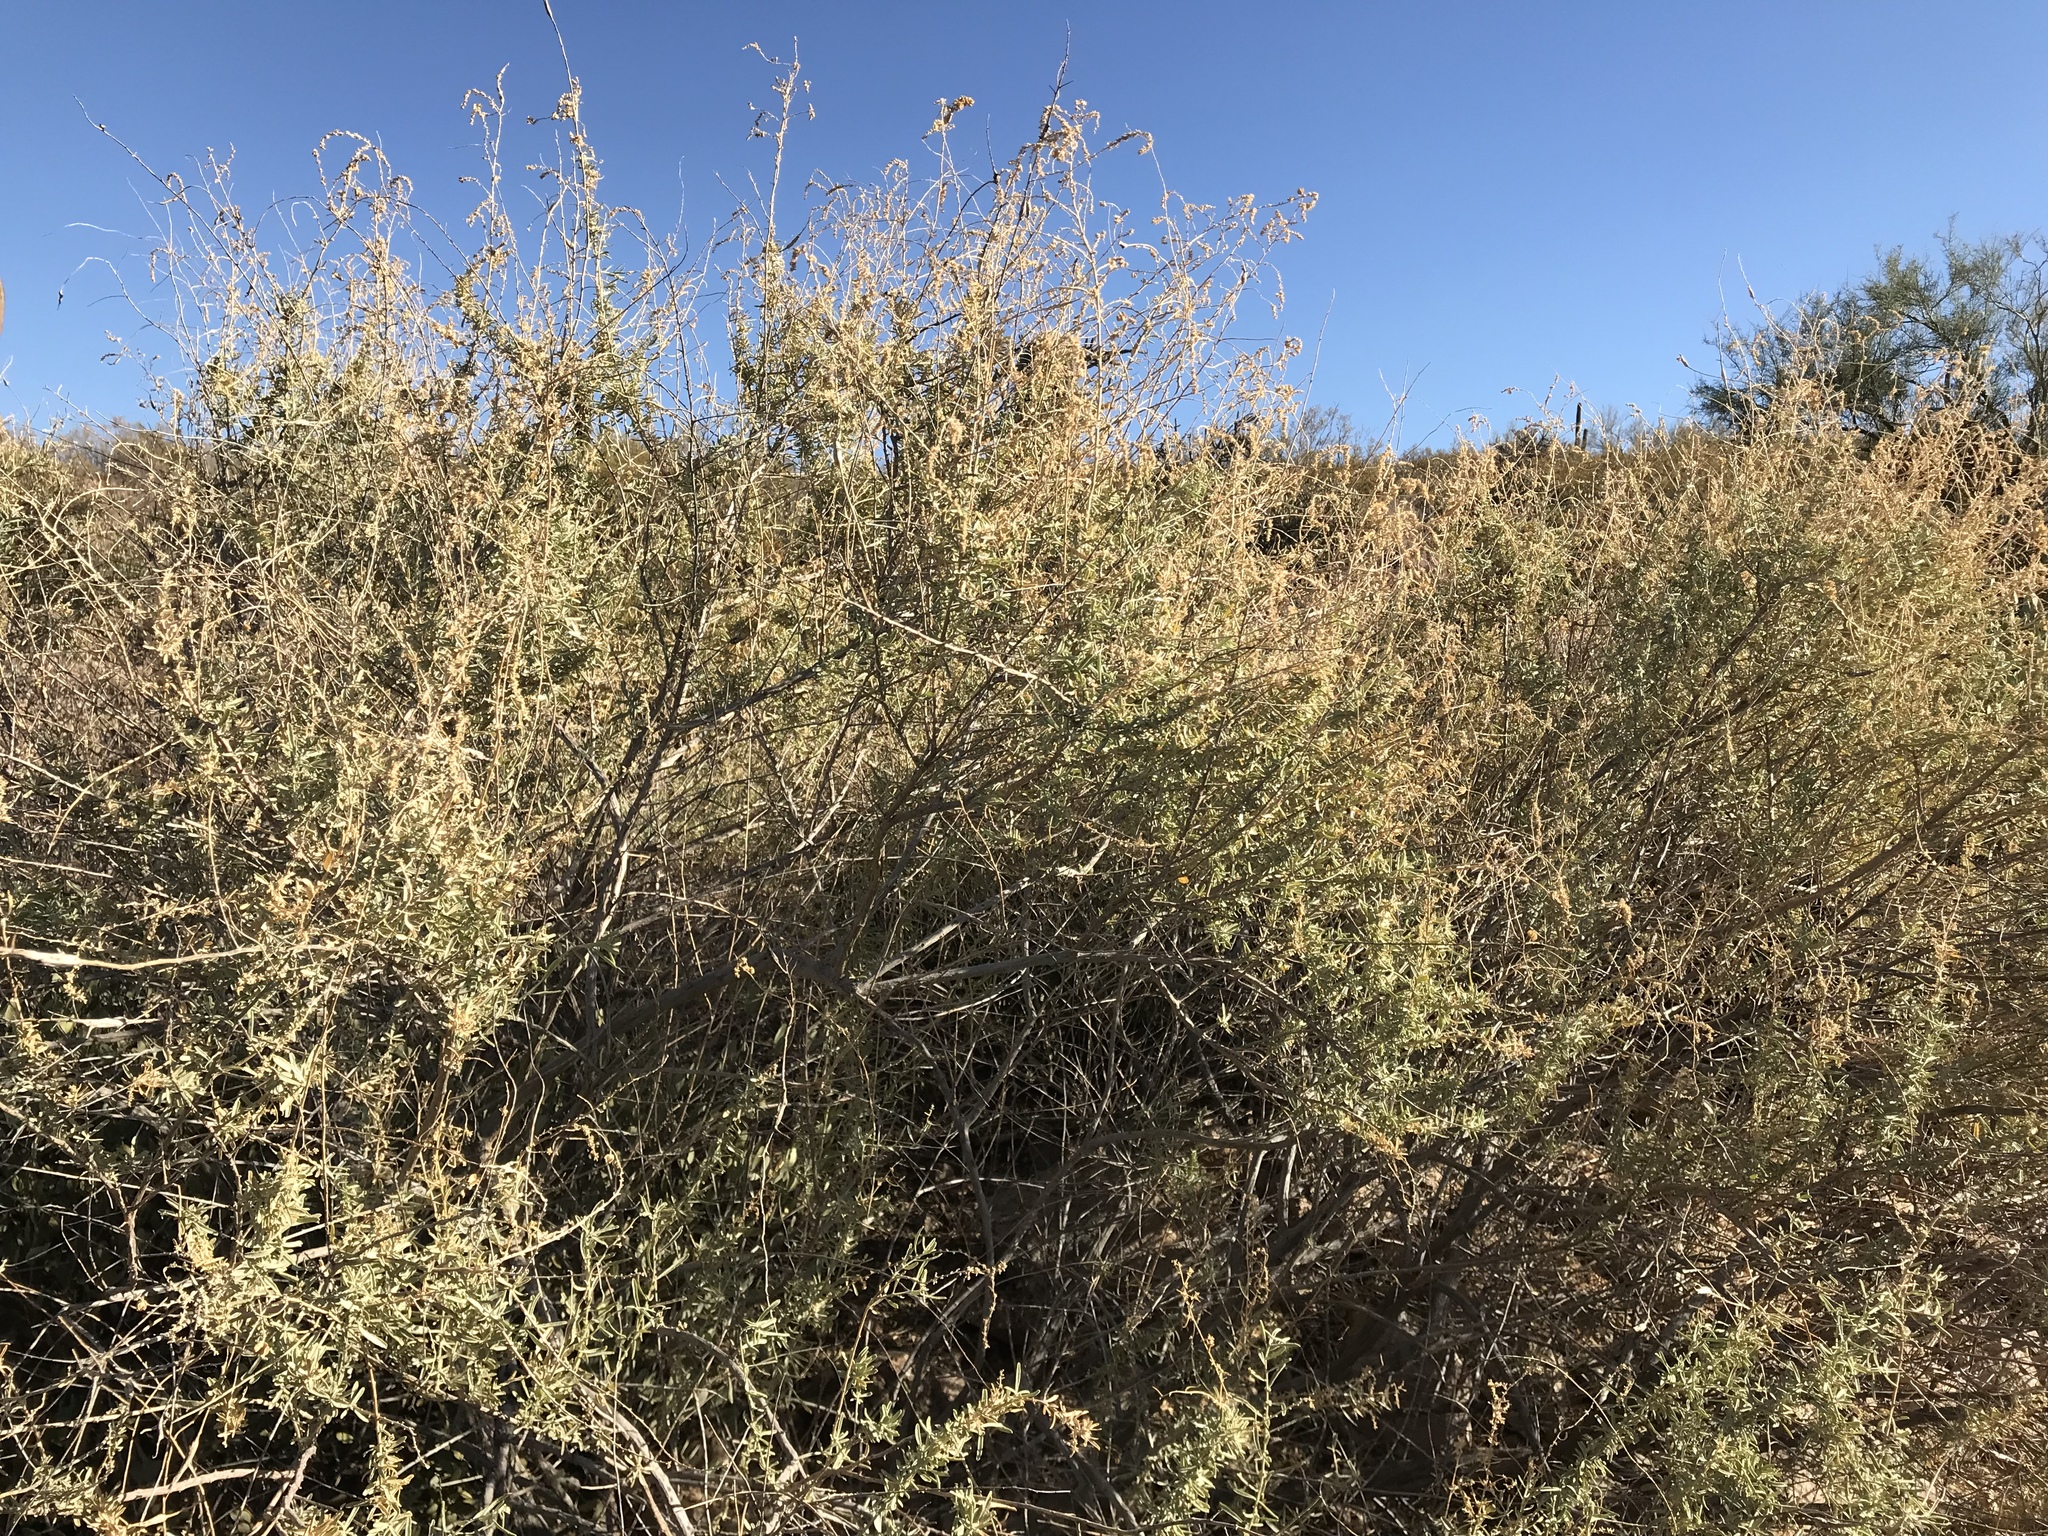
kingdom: Plantae
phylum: Tracheophyta
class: Magnoliopsida
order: Caryophyllales
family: Amaranthaceae
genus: Atriplex
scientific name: Atriplex canescens
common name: Four-wing saltbush
